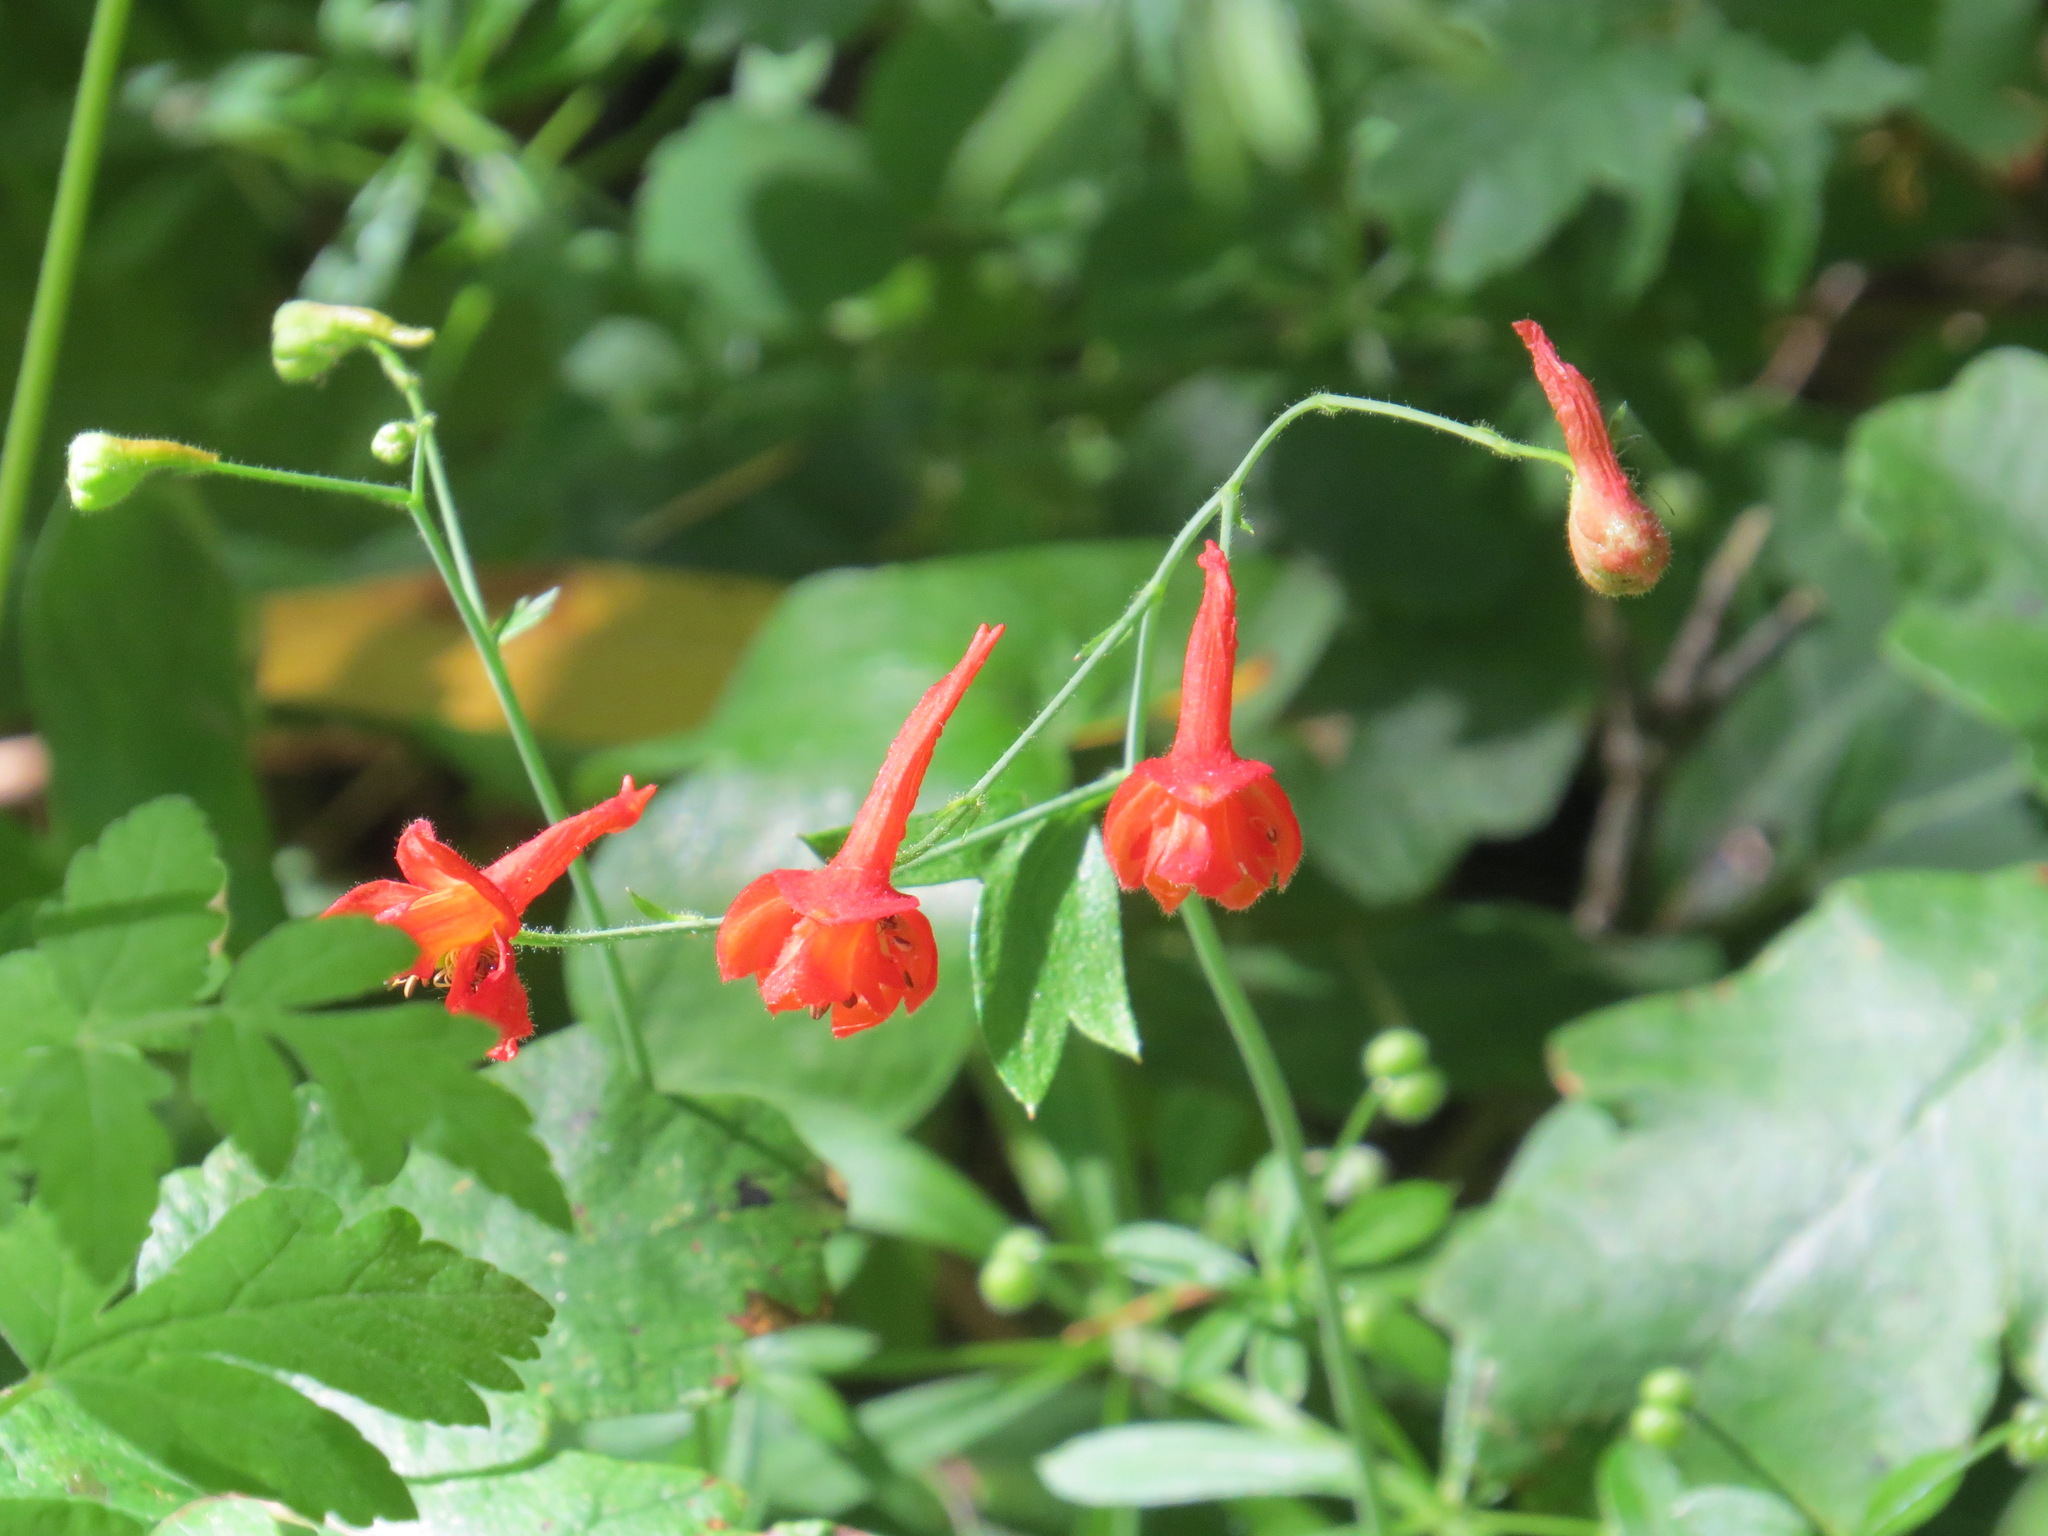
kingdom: Plantae
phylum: Tracheophyta
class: Magnoliopsida
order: Ranunculales
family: Ranunculaceae
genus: Delphinium
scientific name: Delphinium nudicaule
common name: Red larkspur
